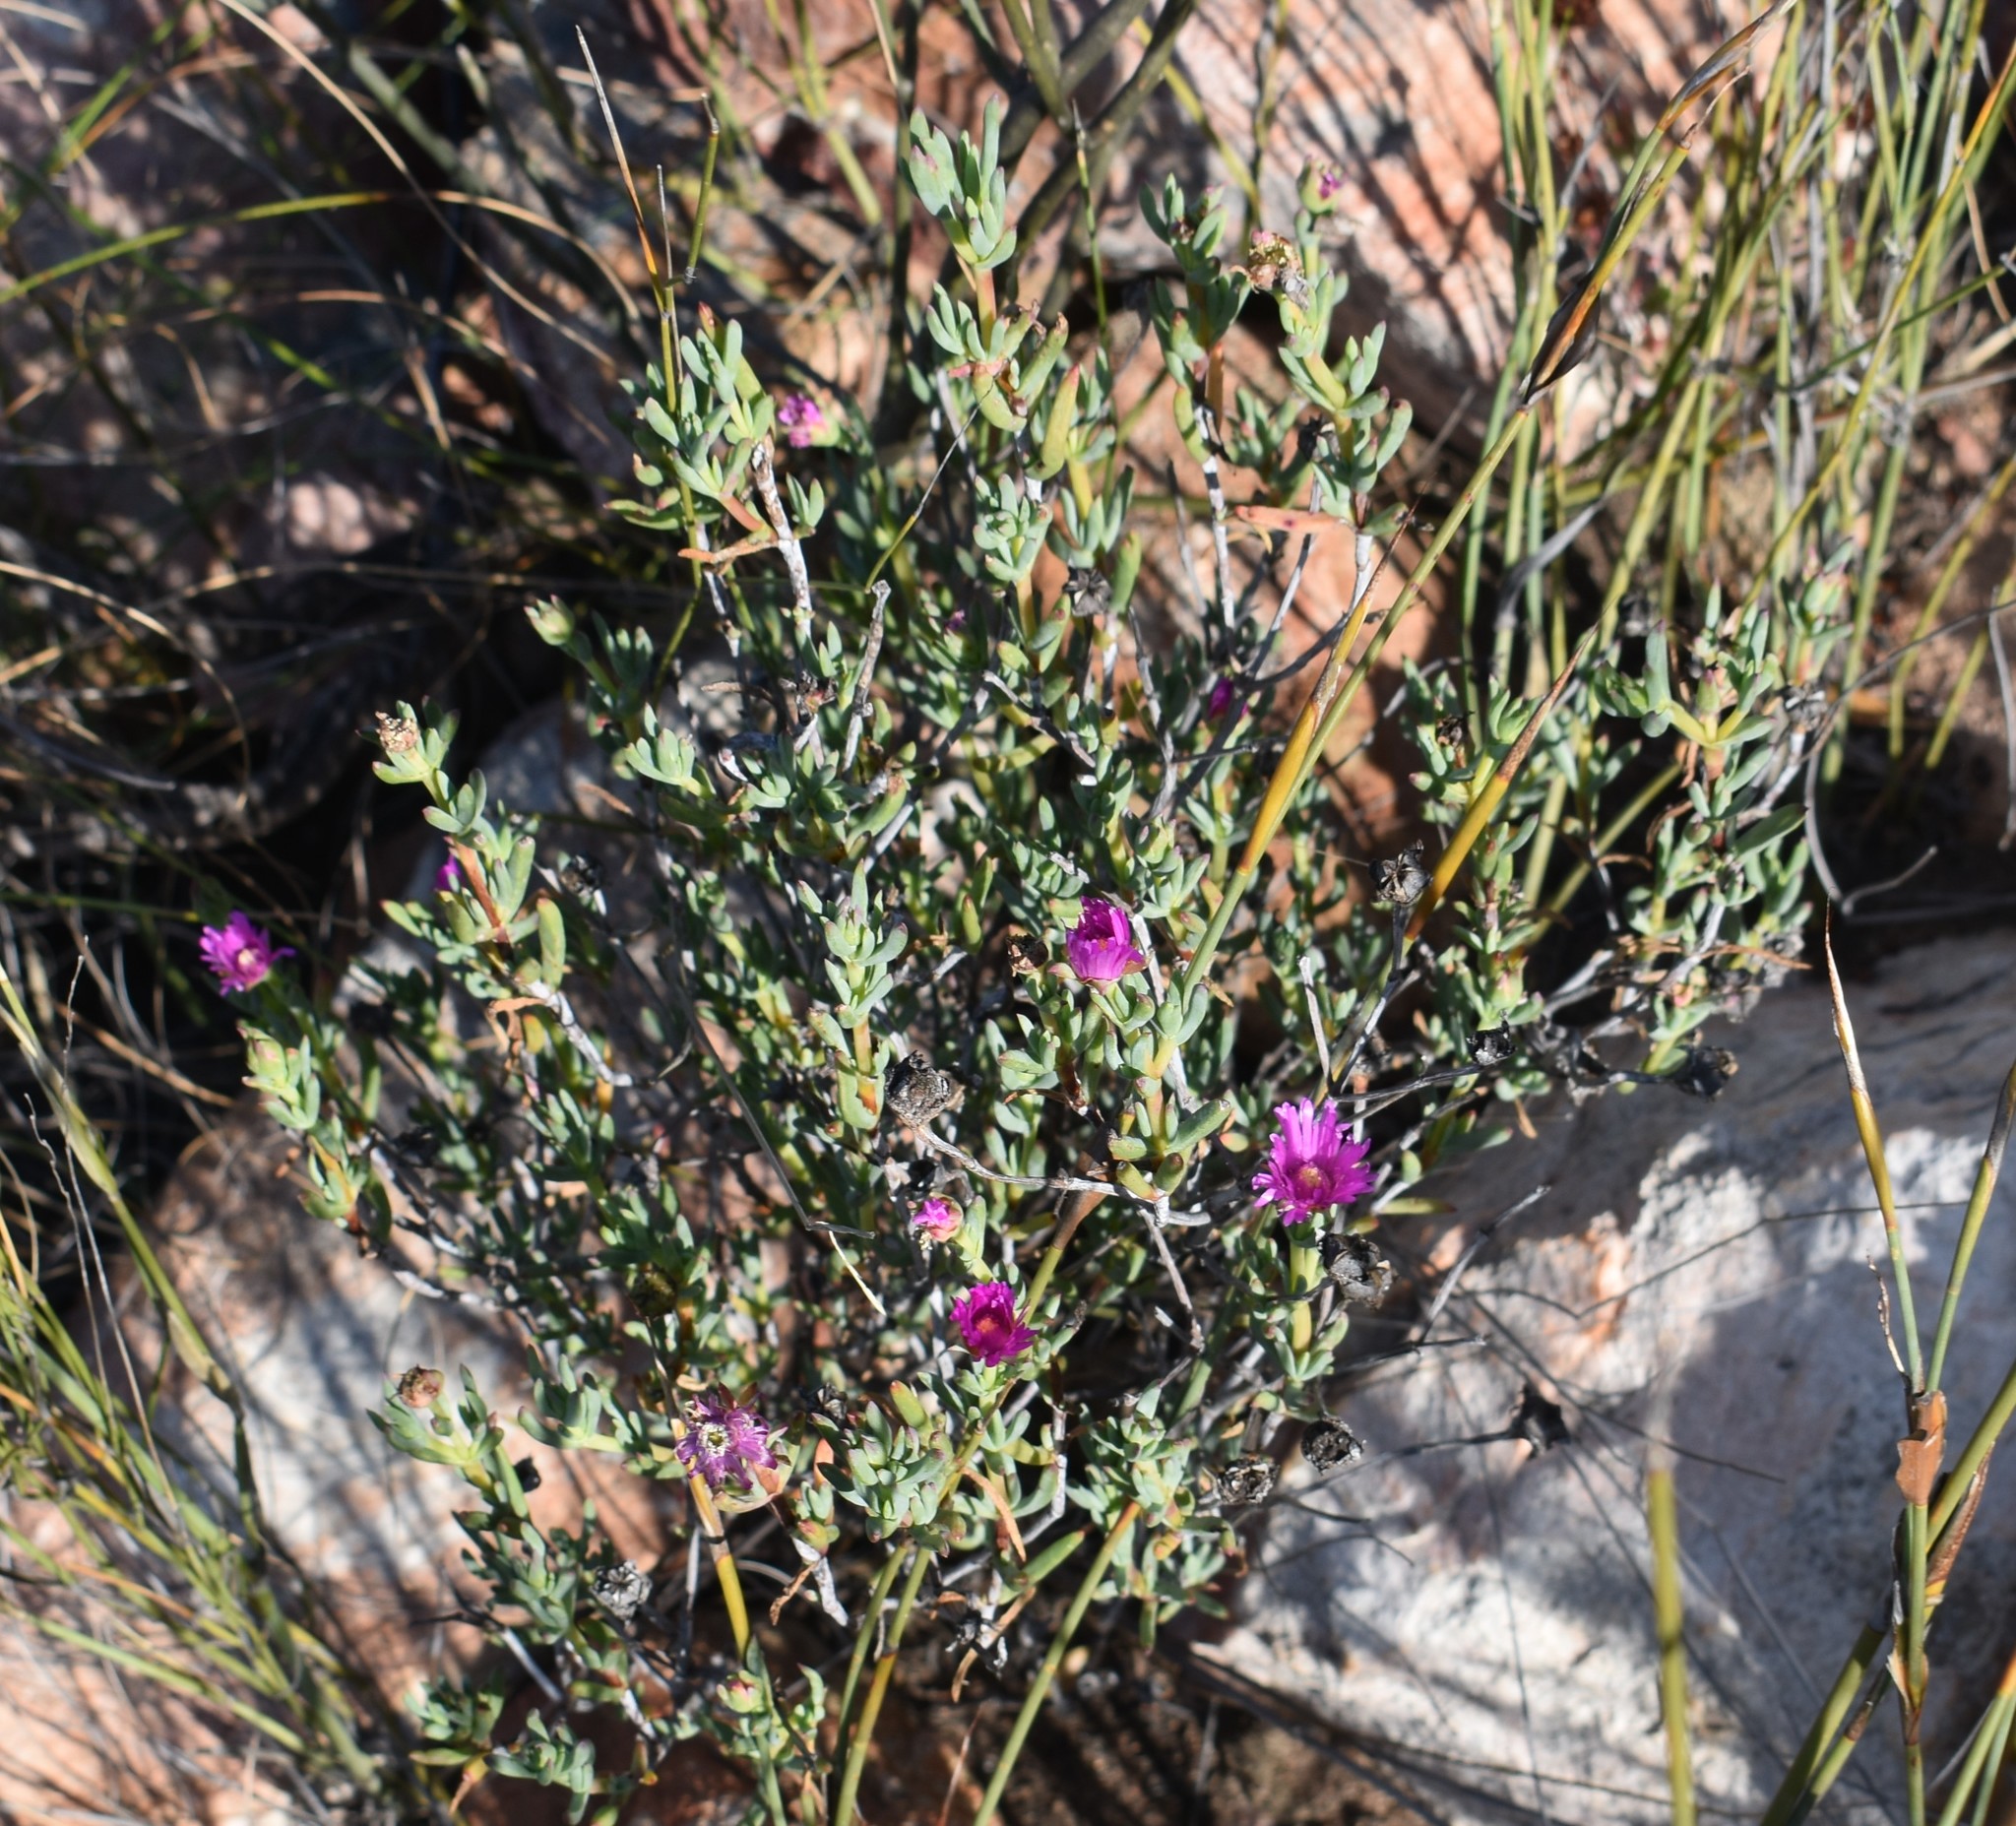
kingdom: Plantae
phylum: Tracheophyta
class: Magnoliopsida
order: Caryophyllales
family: Aizoaceae
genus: Lampranthus
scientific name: Lampranthus haworthii
